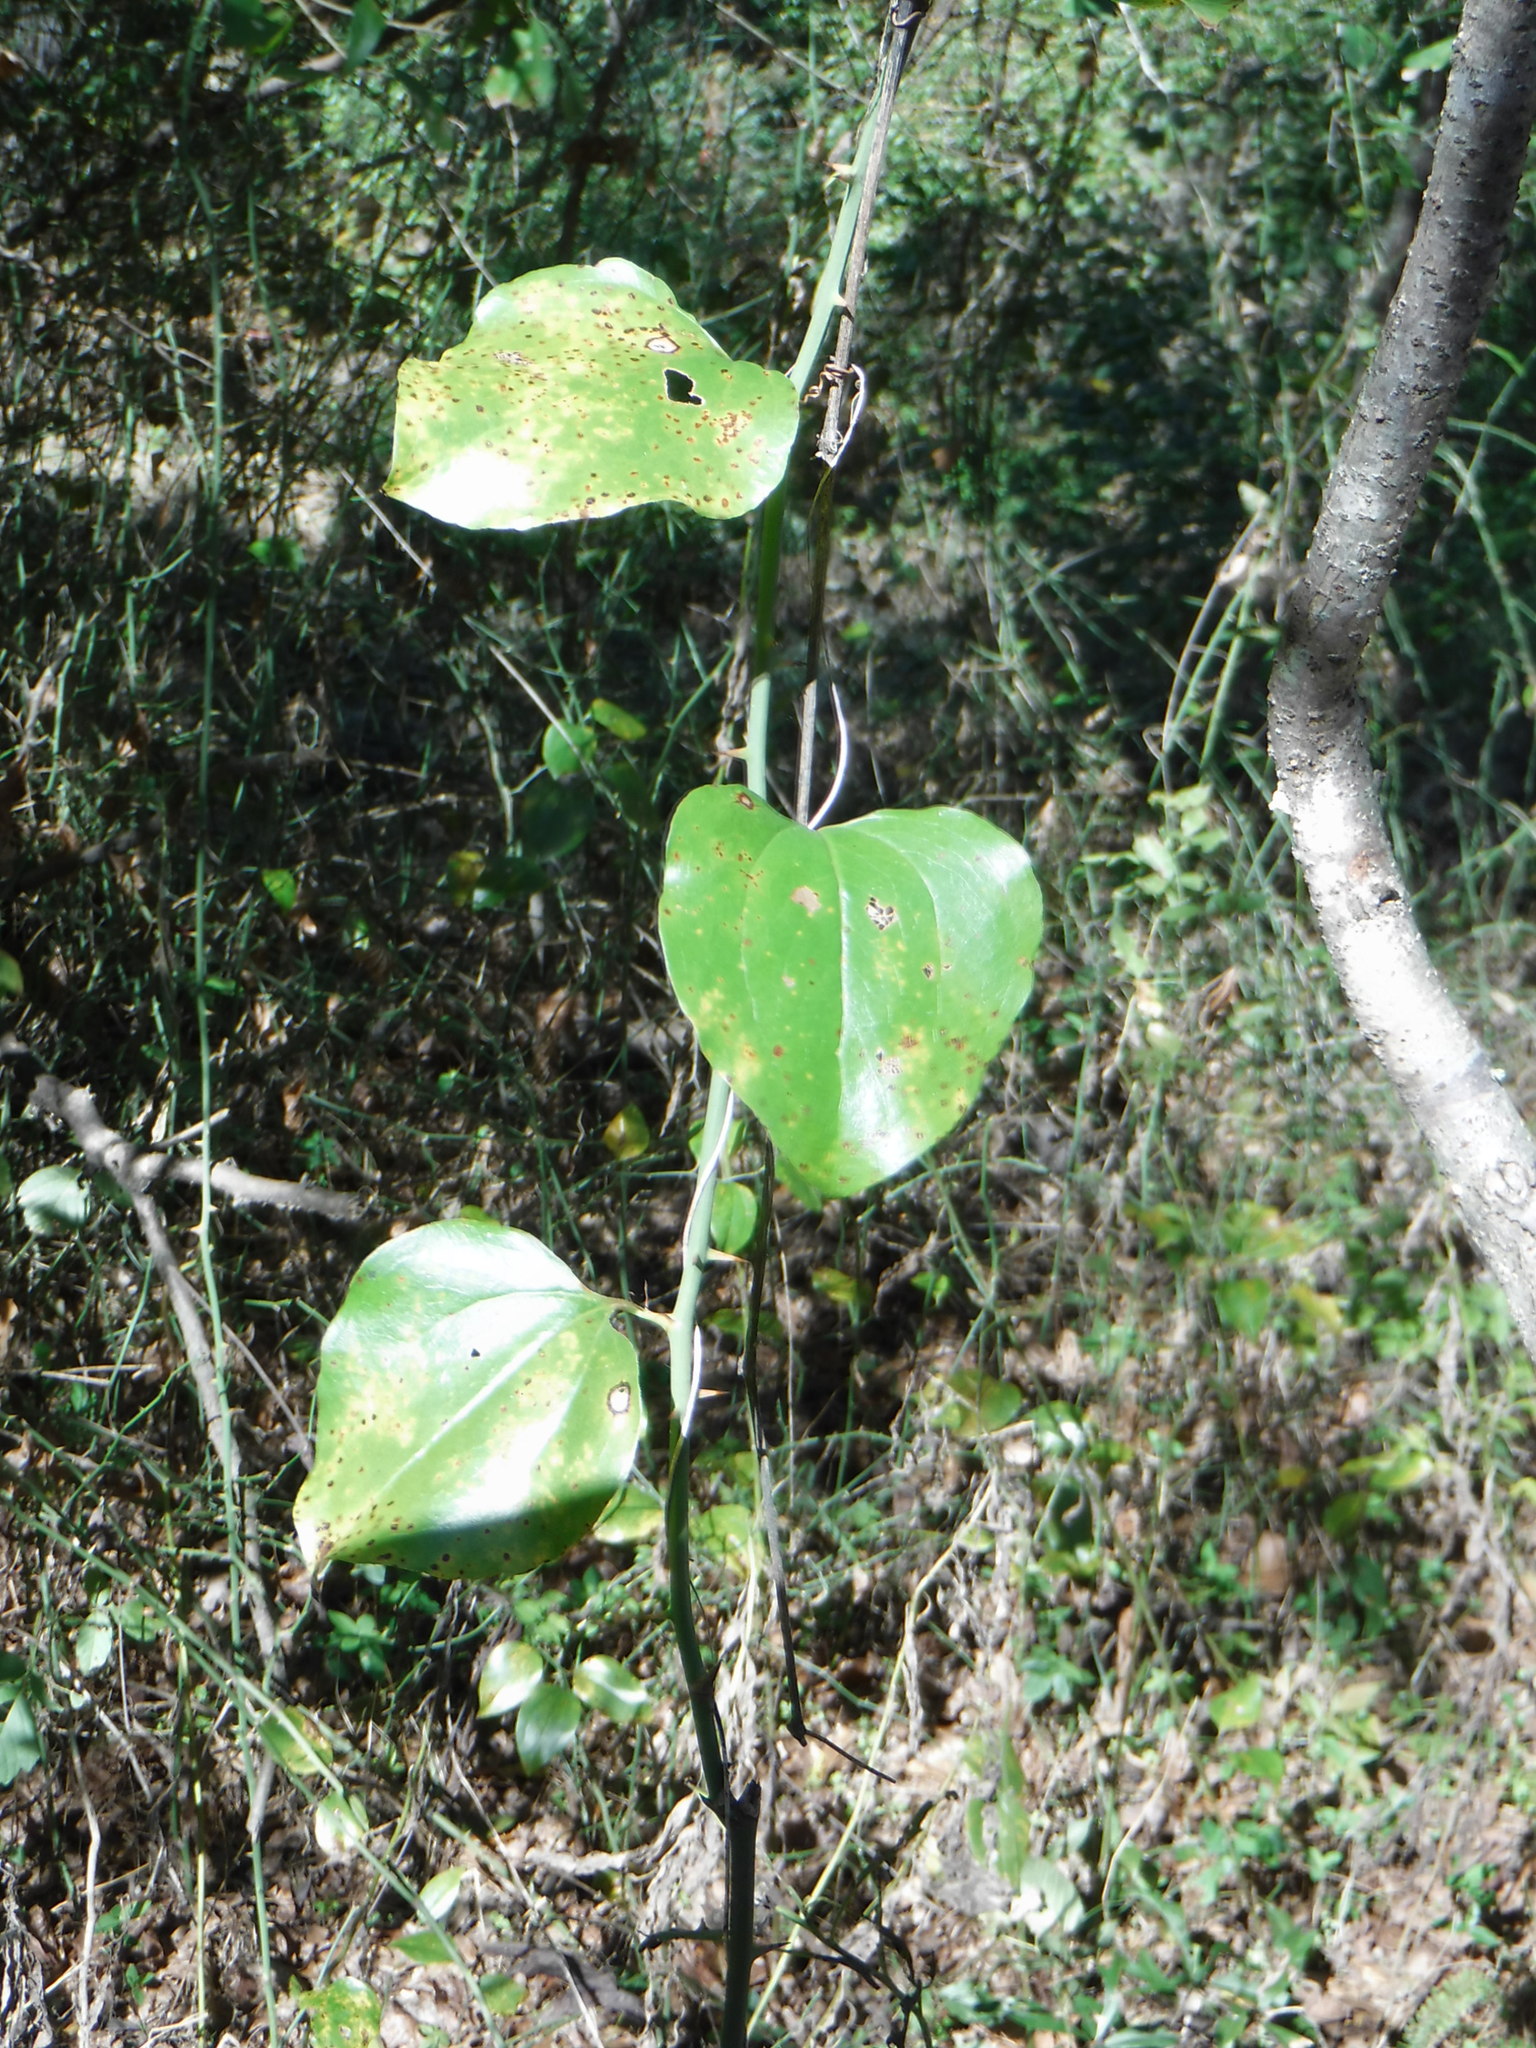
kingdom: Plantae
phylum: Tracheophyta
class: Liliopsida
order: Liliales
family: Smilacaceae
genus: Smilax
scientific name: Smilax glauca
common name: Cat greenbrier
